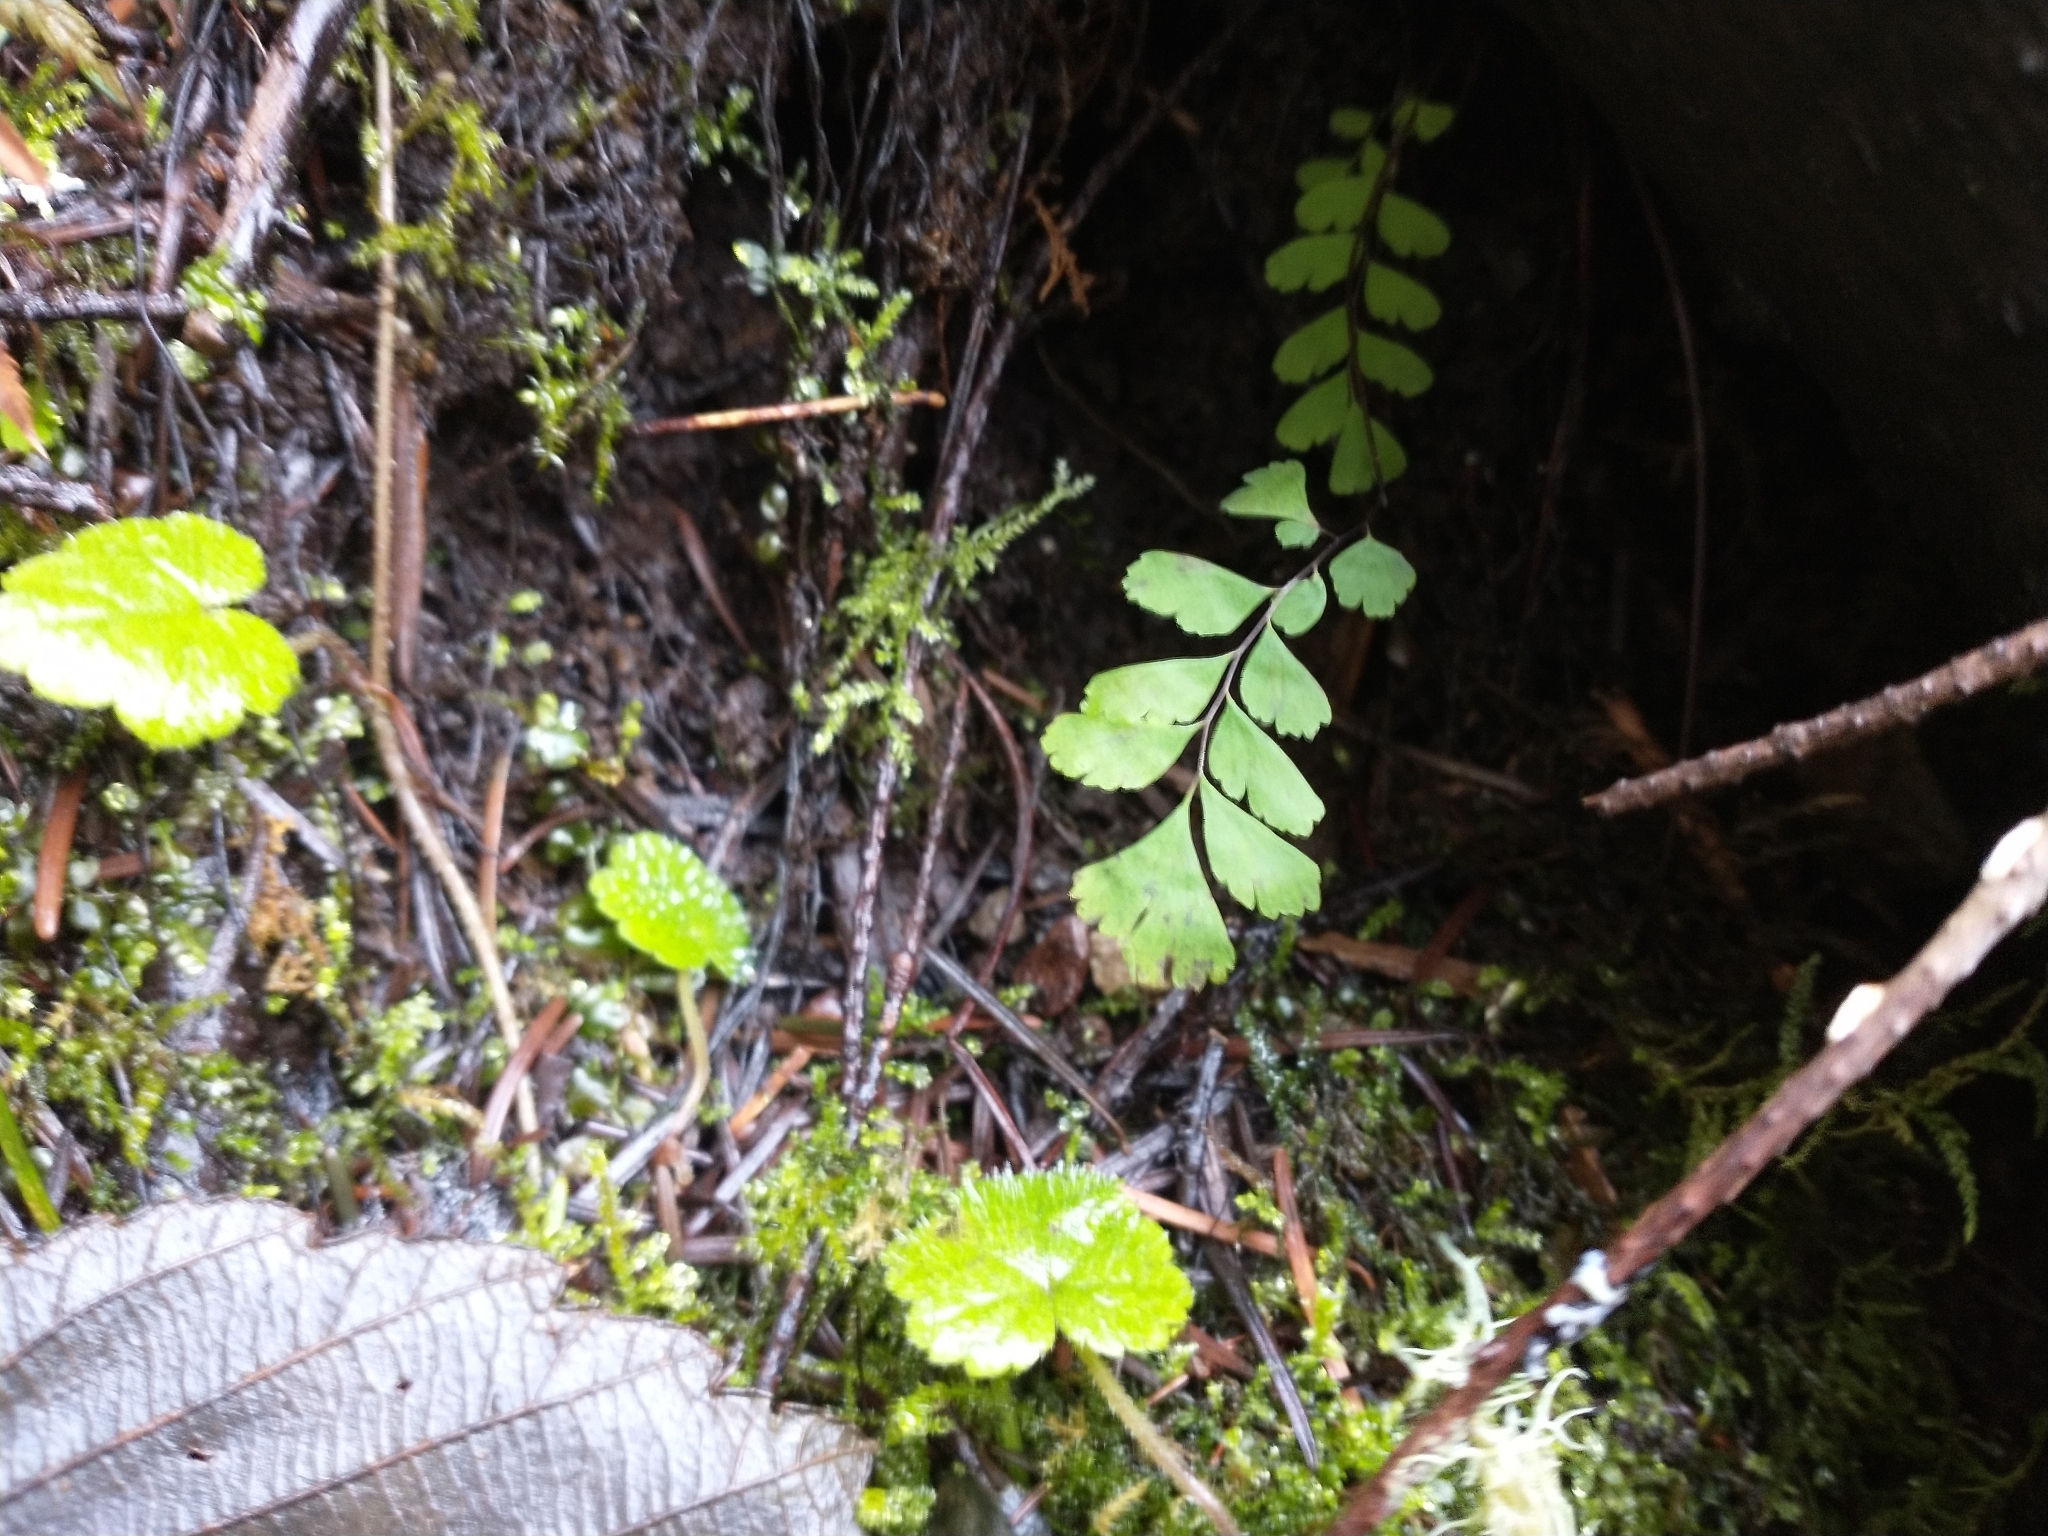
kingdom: Plantae
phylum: Tracheophyta
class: Polypodiopsida
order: Polypodiales
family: Pteridaceae
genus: Adiantum
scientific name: Adiantum aleuticum
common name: Aleutian maidenhair fern
